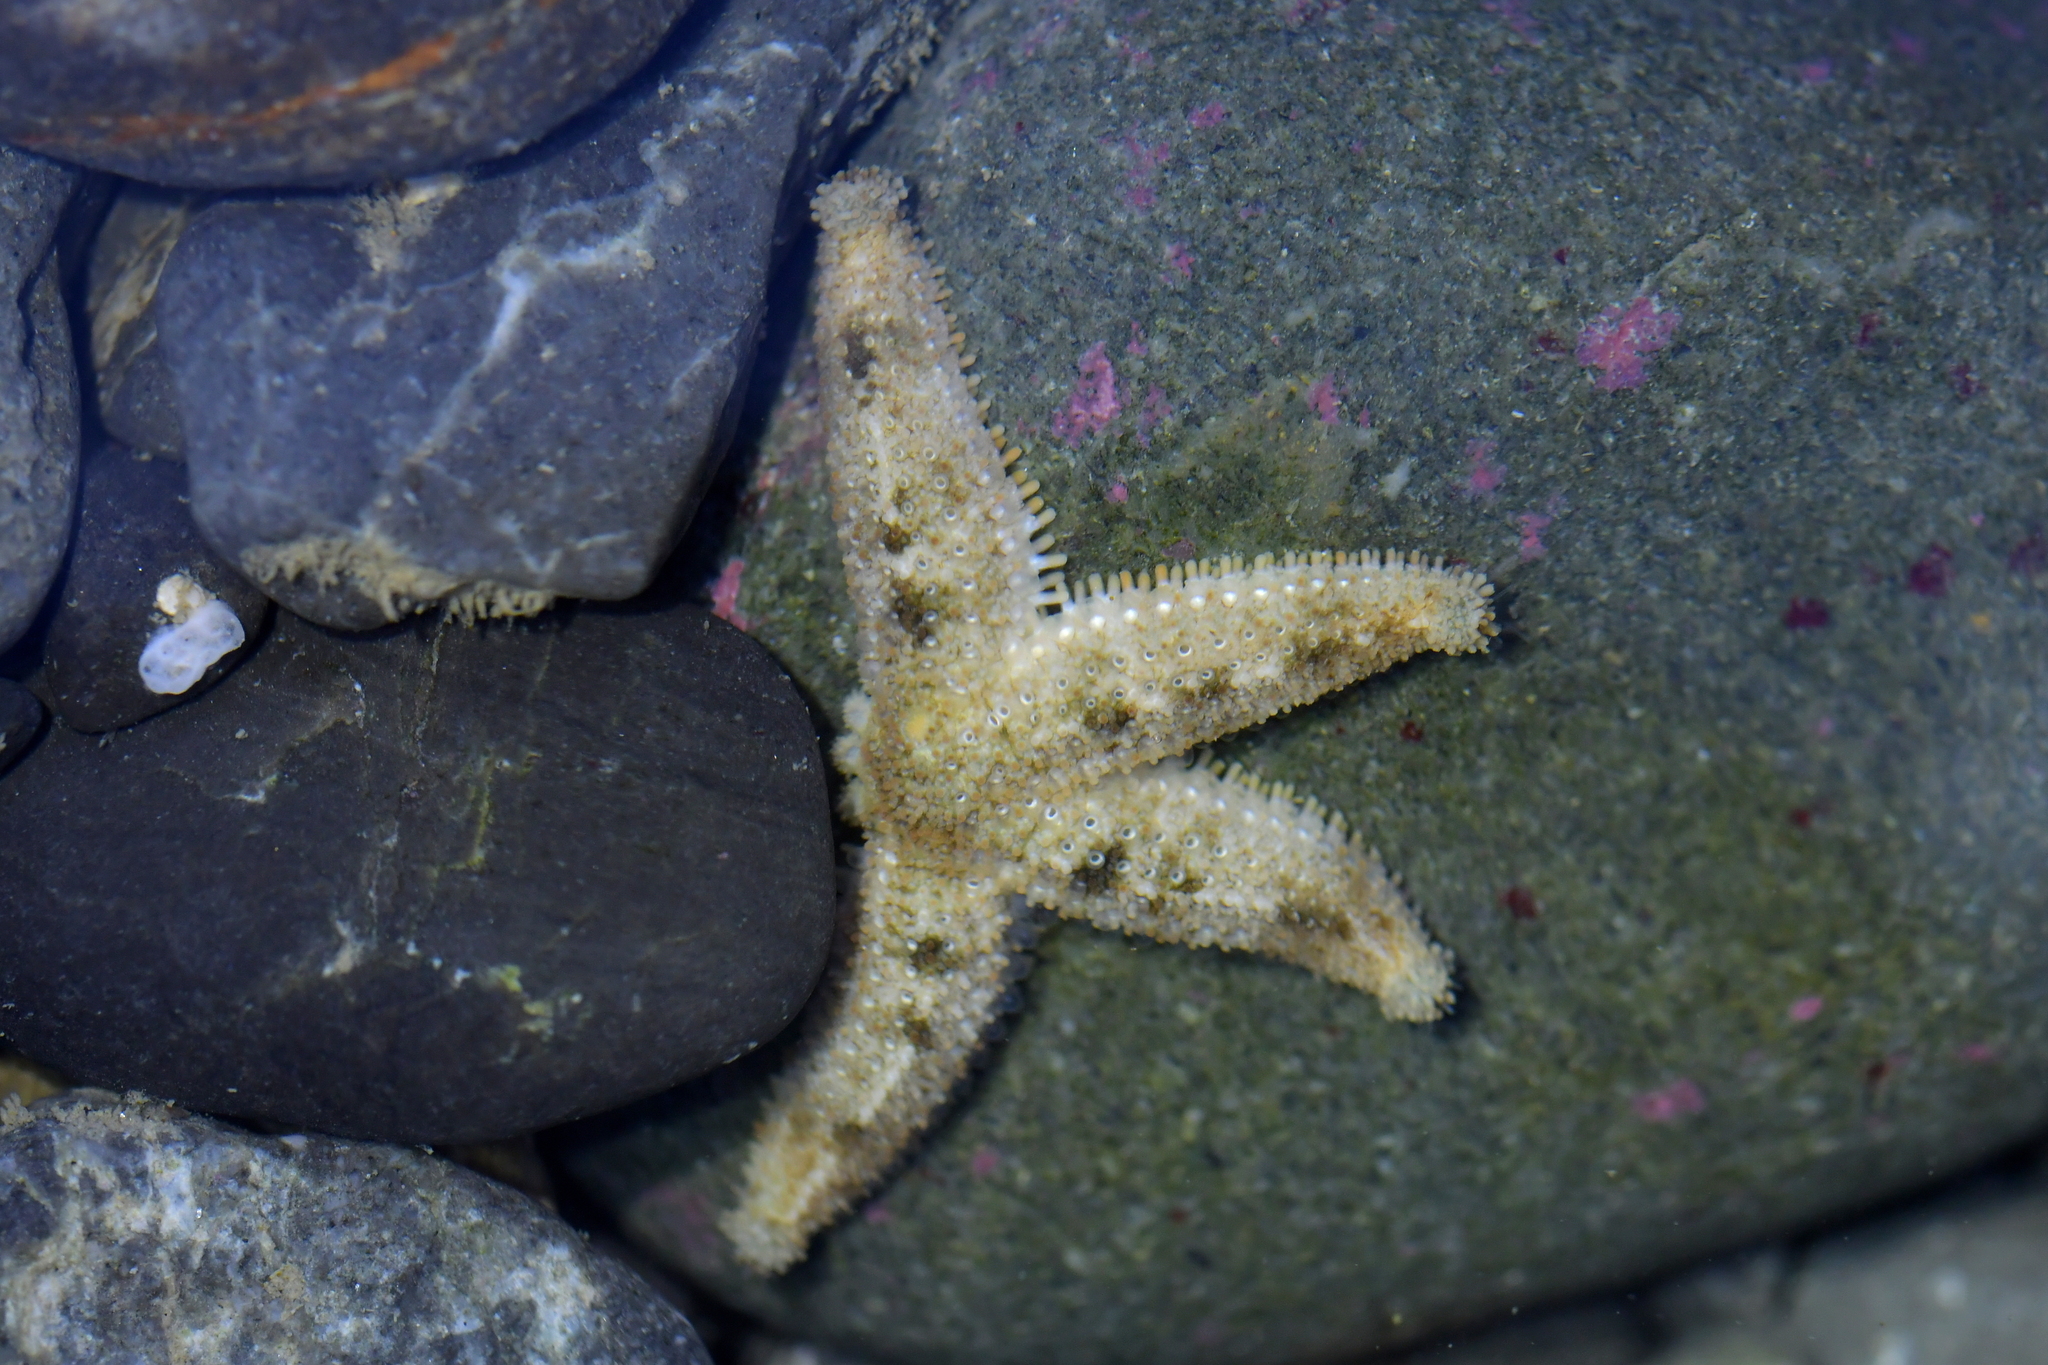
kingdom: Animalia
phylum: Echinodermata
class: Asteroidea
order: Forcipulatida
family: Stichasteridae
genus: Allostichaster
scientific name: Allostichaster polyplax
